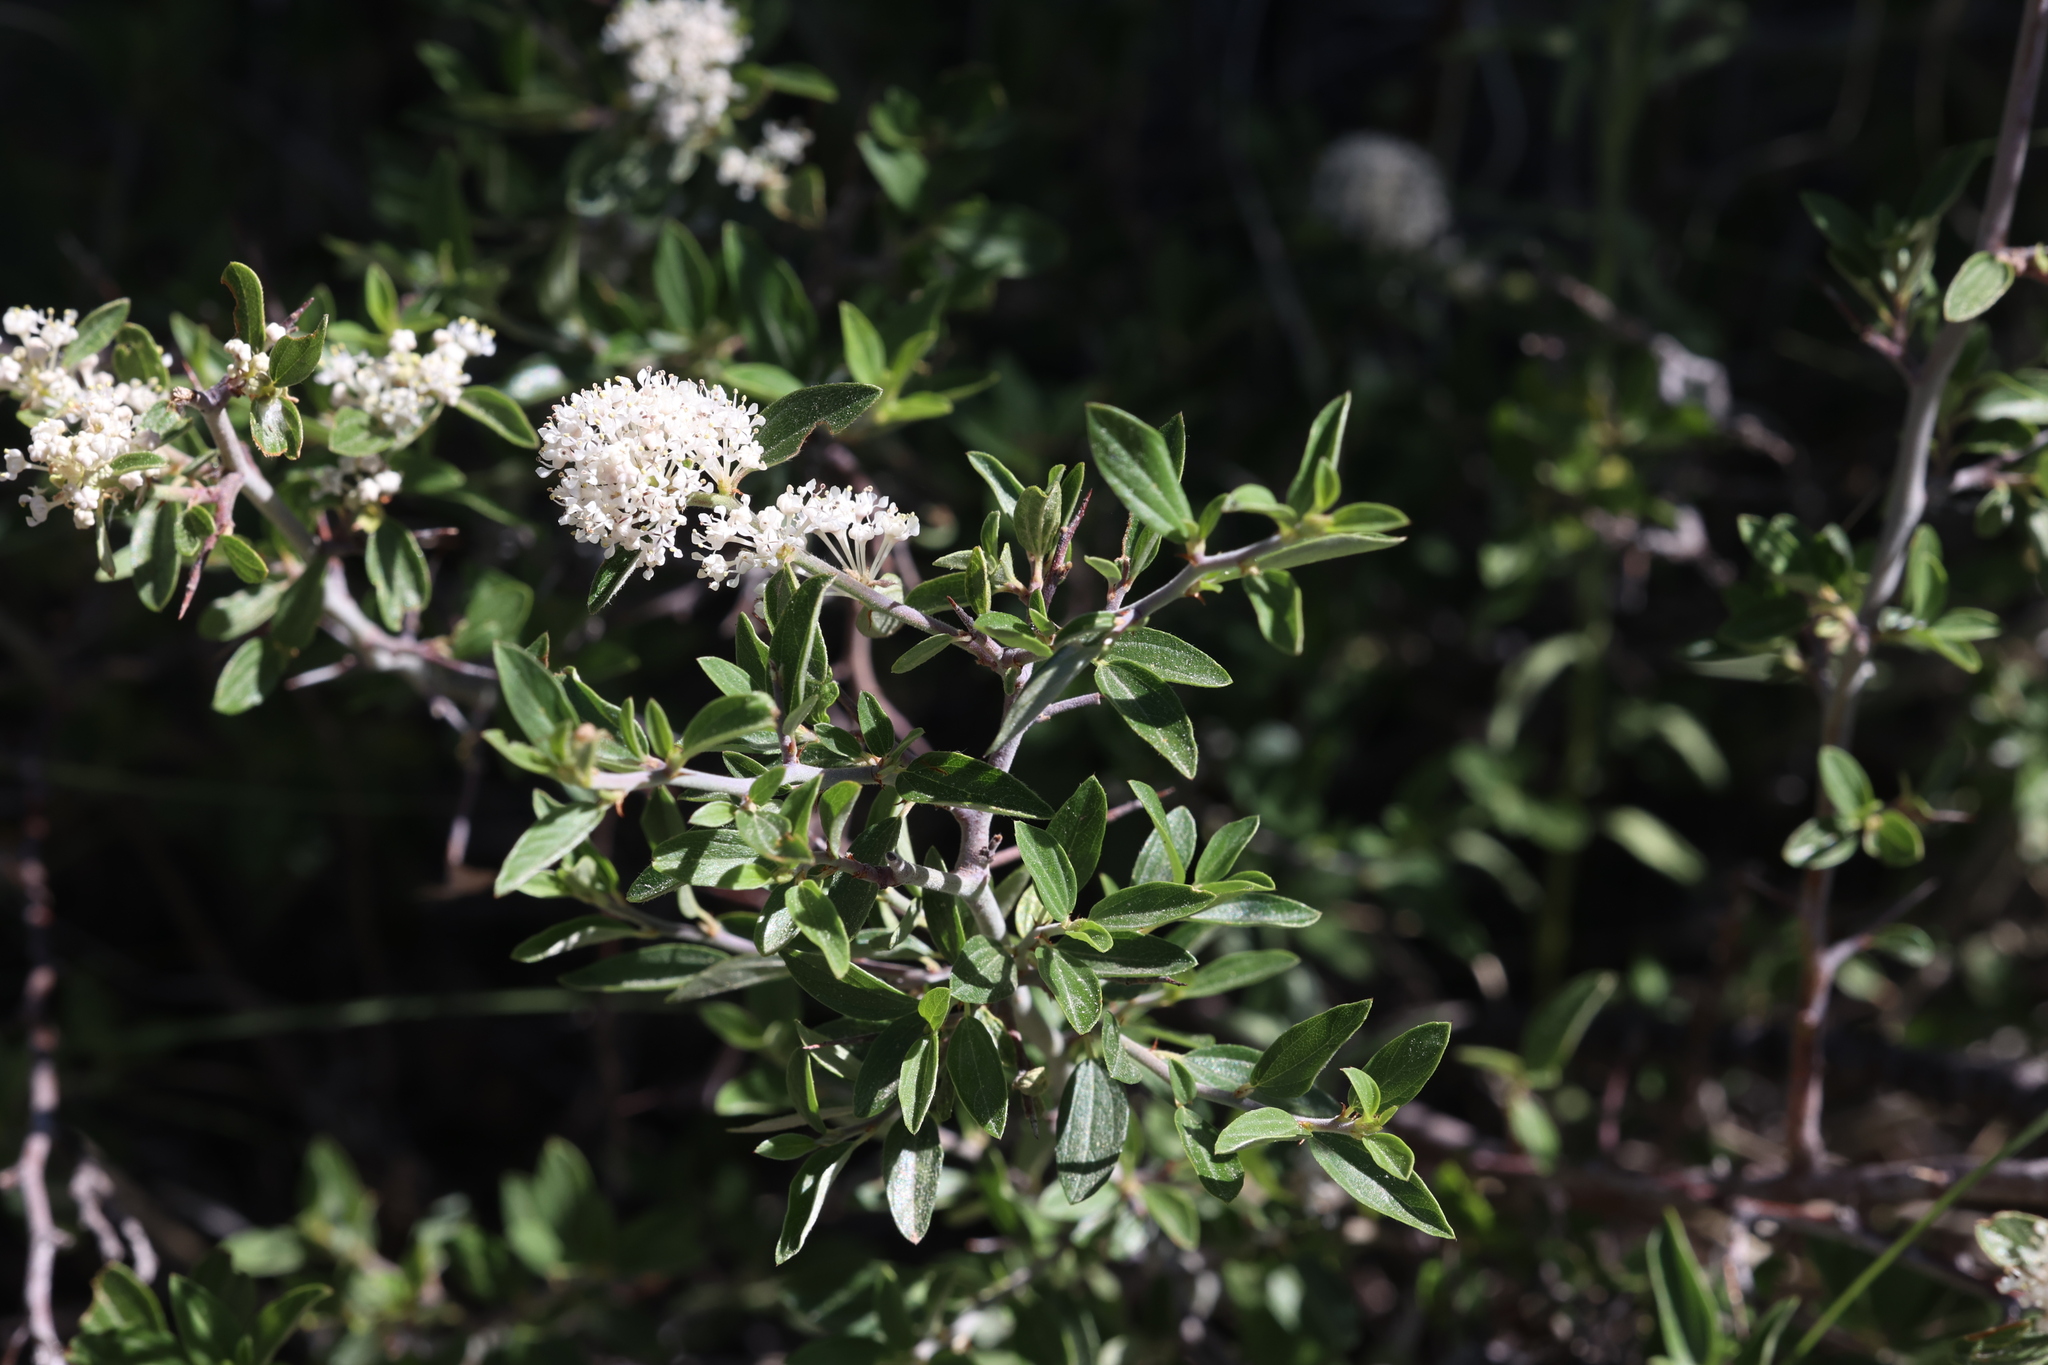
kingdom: Plantae
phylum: Tracheophyta
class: Magnoliopsida
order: Rosales
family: Rhamnaceae
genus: Ceanothus
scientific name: Ceanothus fendleri
